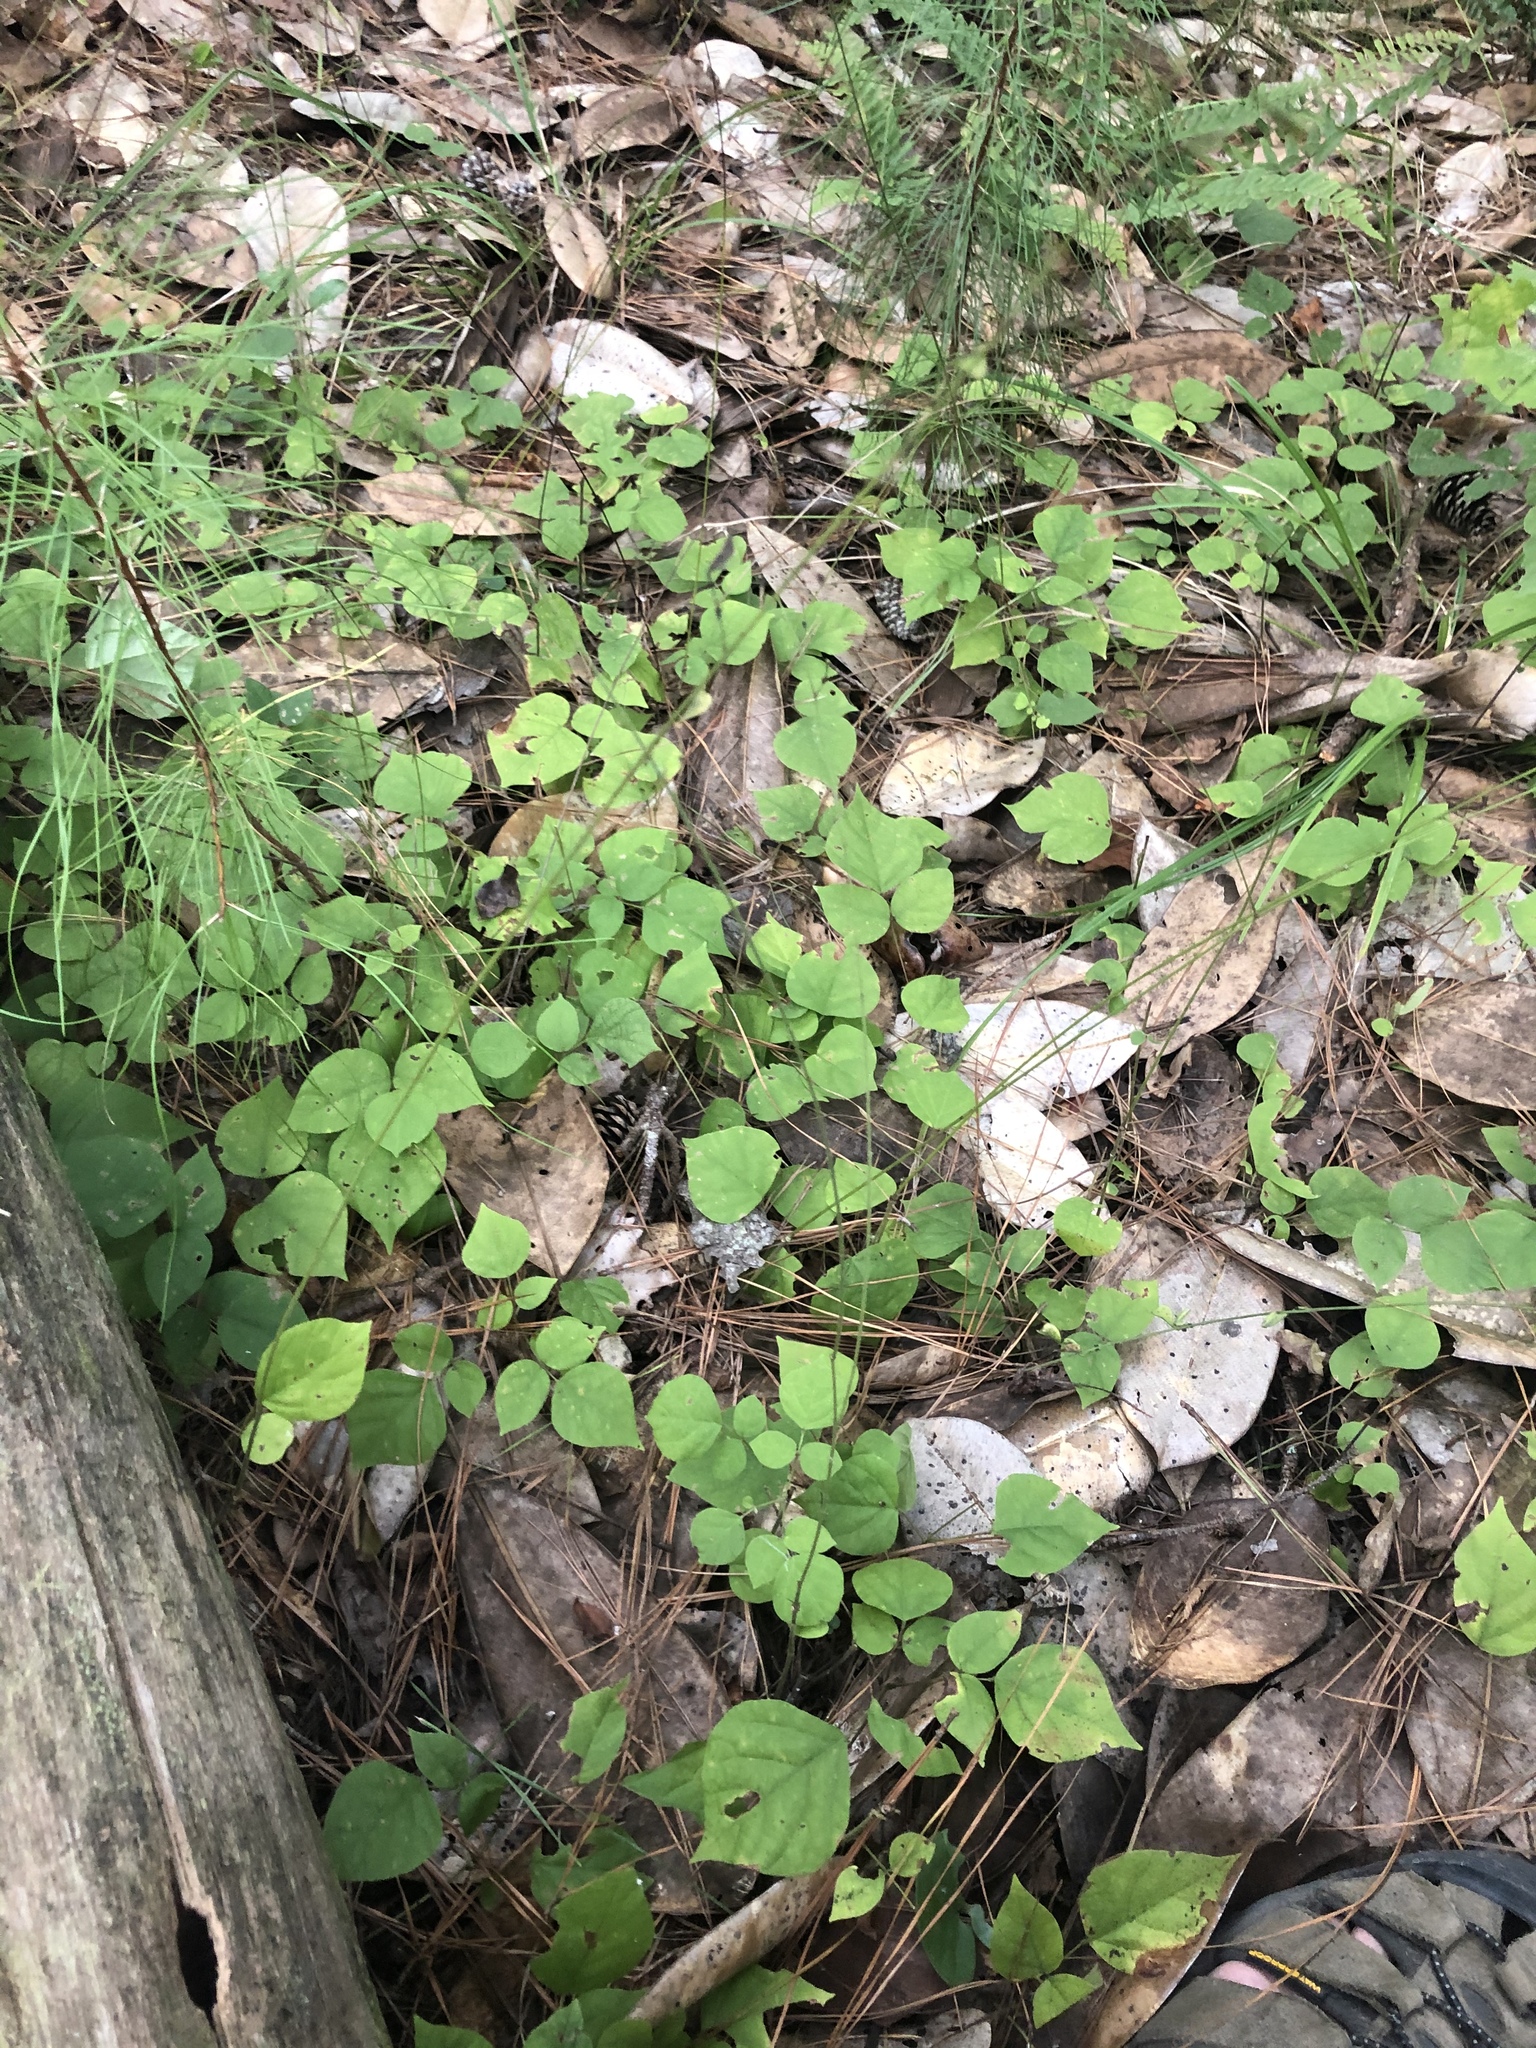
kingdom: Plantae
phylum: Tracheophyta
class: Magnoliopsida
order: Fabales
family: Fabaceae
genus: Hylodesmum
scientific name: Hylodesmum glutinosum
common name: Clustered-leaved tick-trefoil
